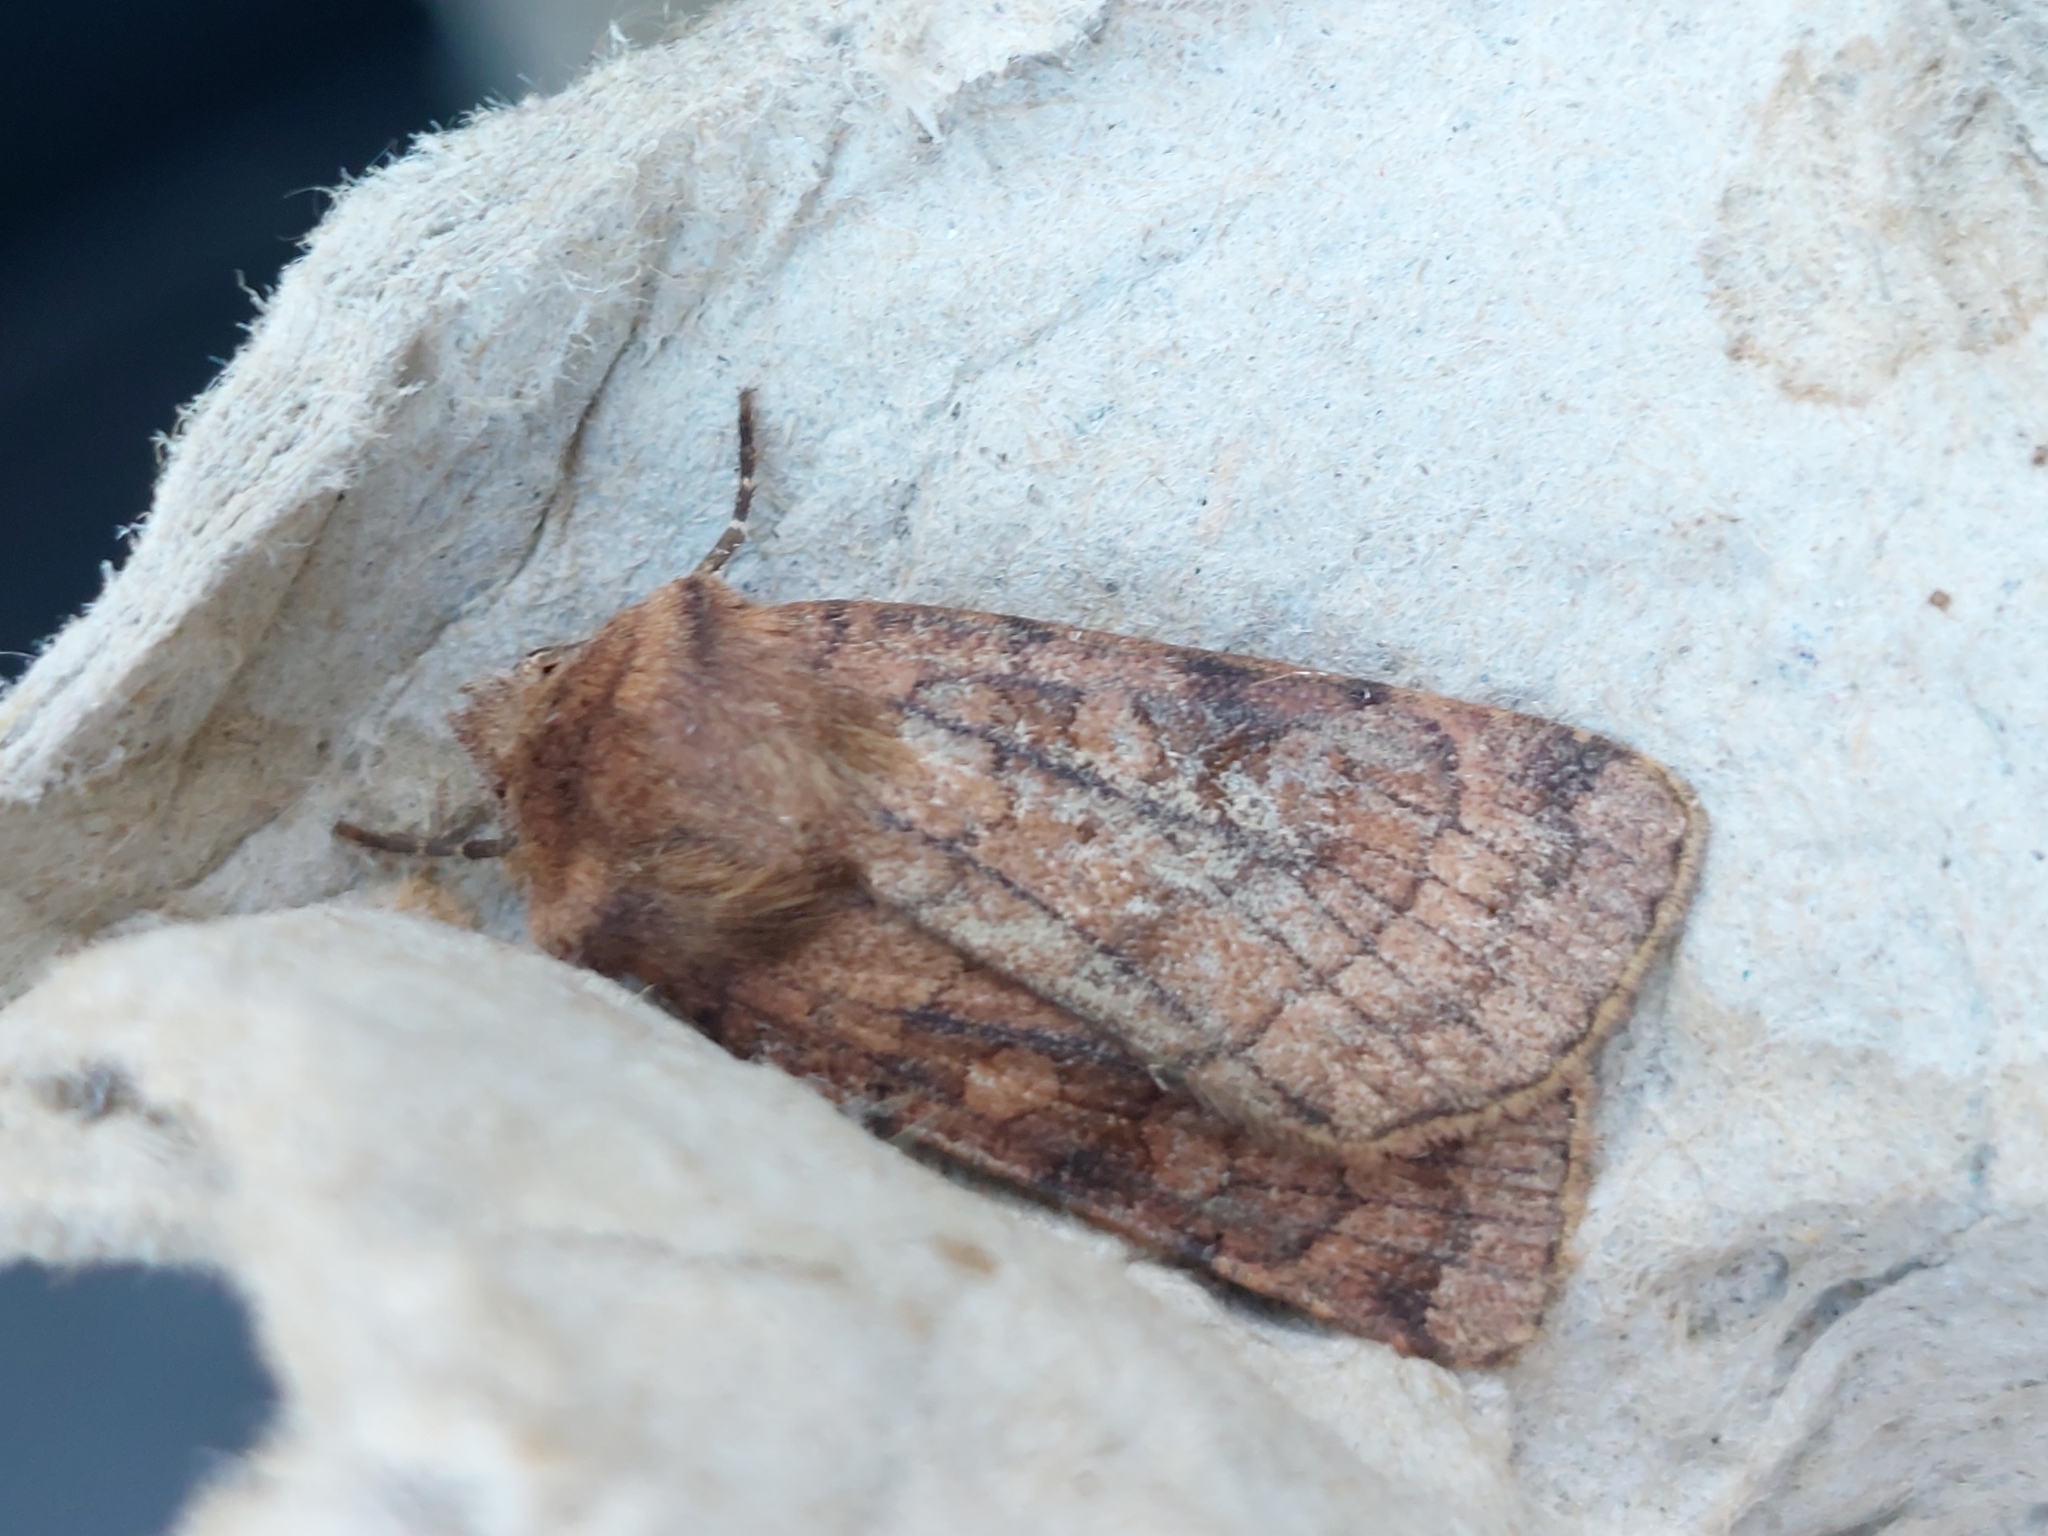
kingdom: Animalia
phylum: Arthropoda
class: Insecta
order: Lepidoptera
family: Noctuidae
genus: Xestia
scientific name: Xestia sexstrigata
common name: Six-striped rustic
